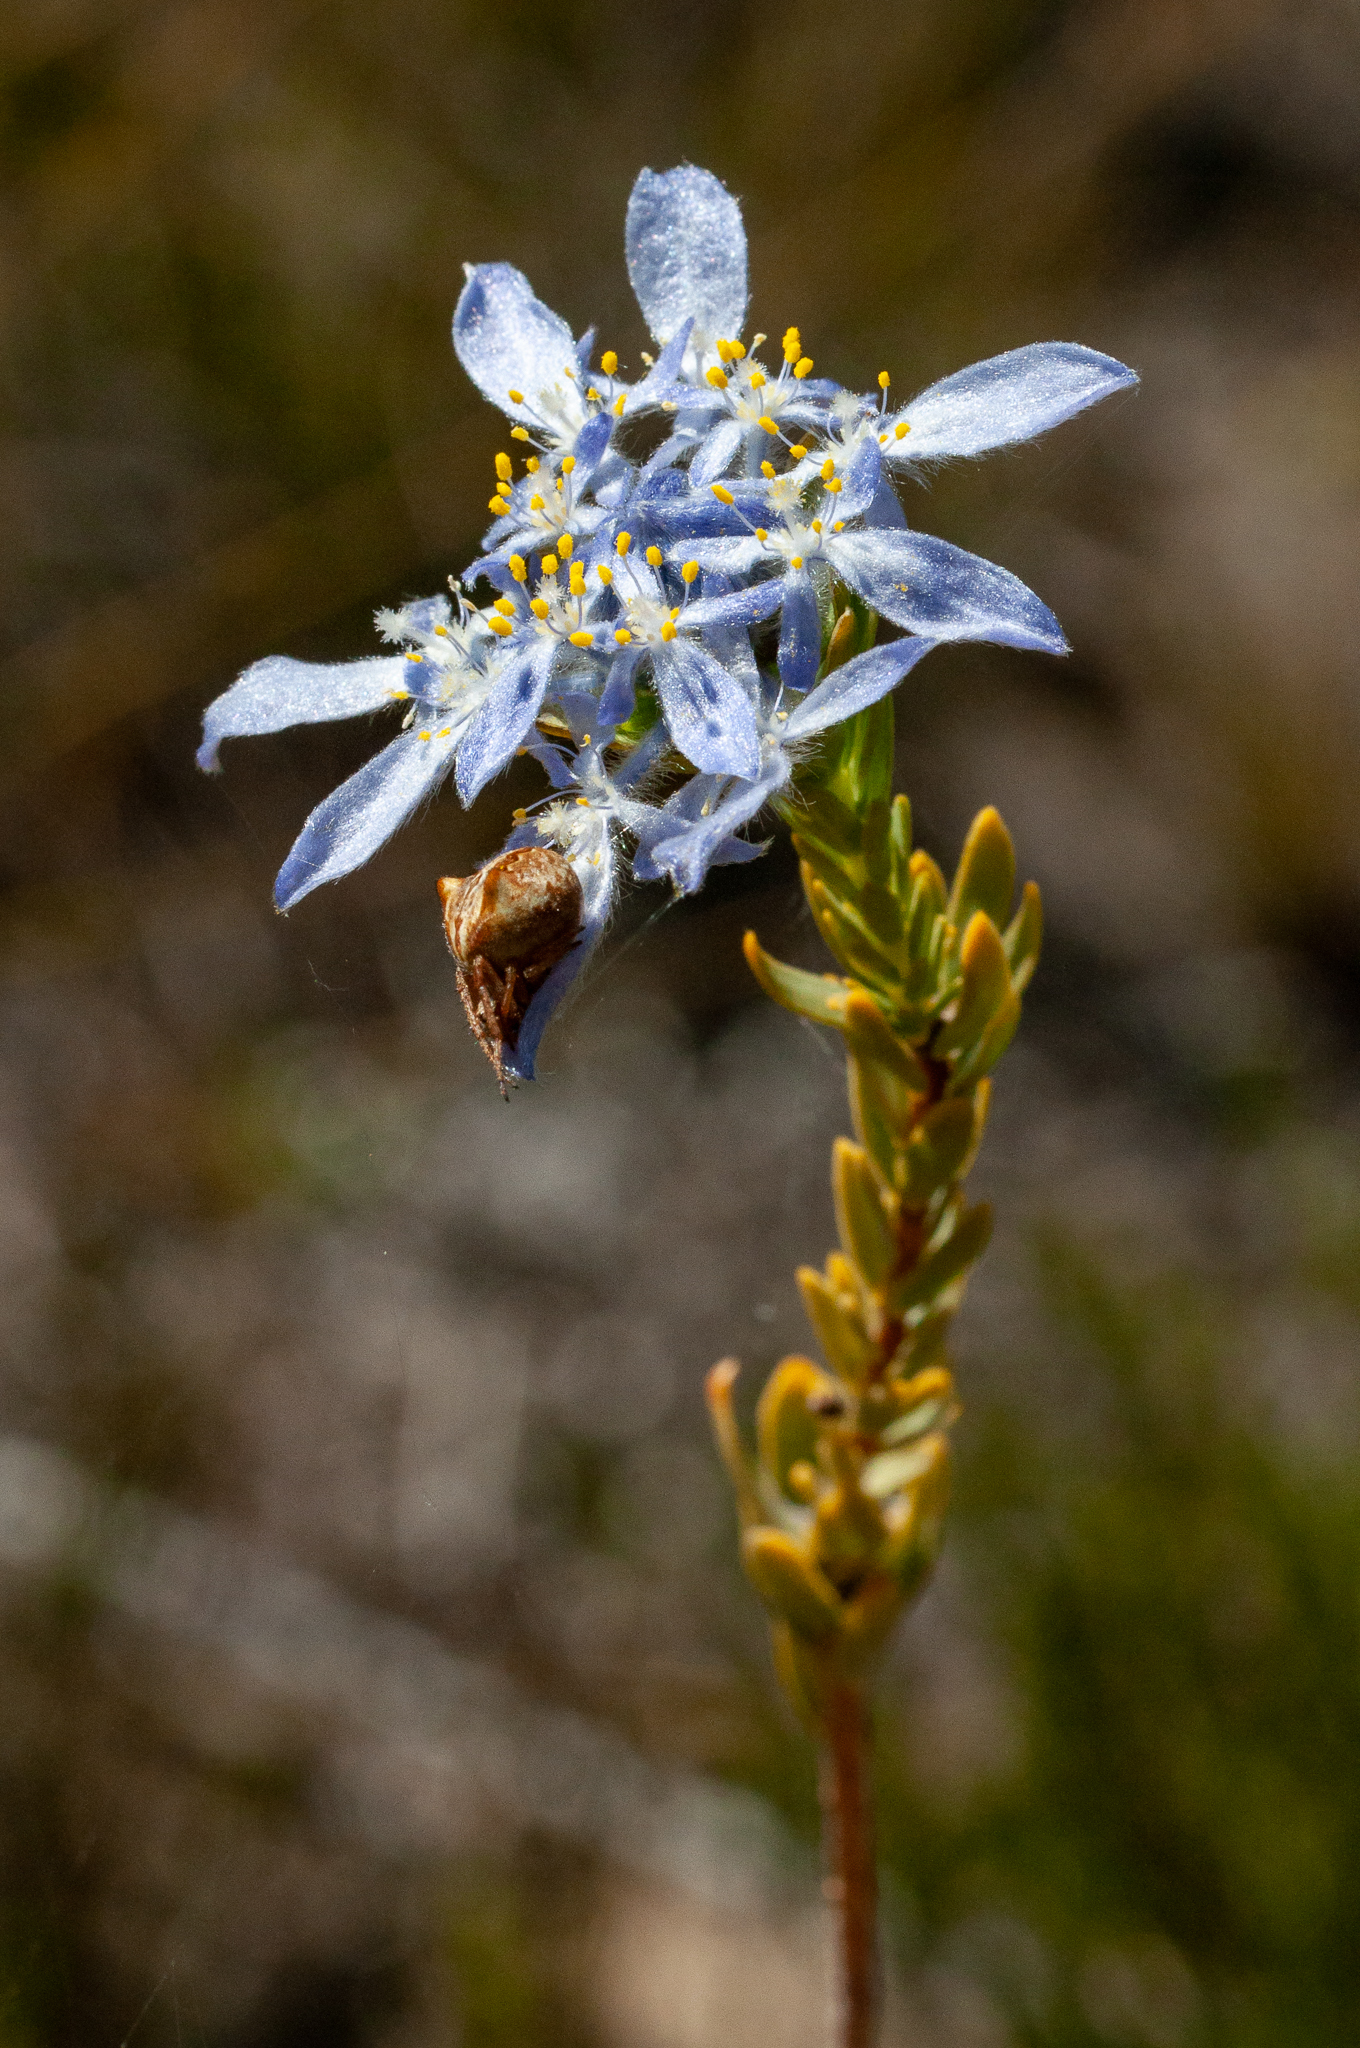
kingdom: Plantae
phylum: Tracheophyta
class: Magnoliopsida
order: Malvales
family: Thymelaeaceae
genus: Lachnaea
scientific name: Lachnaea filamentosa
